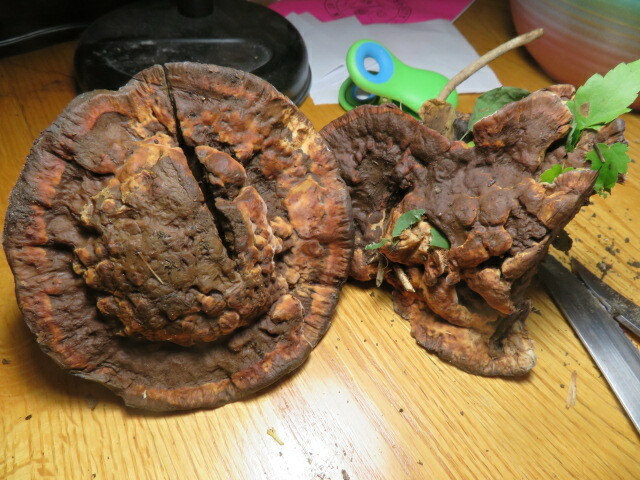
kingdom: Fungi
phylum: Basidiomycota
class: Agaricomycetes
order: Thelephorales
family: Bankeraceae
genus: Hydnellum
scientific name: Hydnellum caeruleum
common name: Blue corky spine fungus
